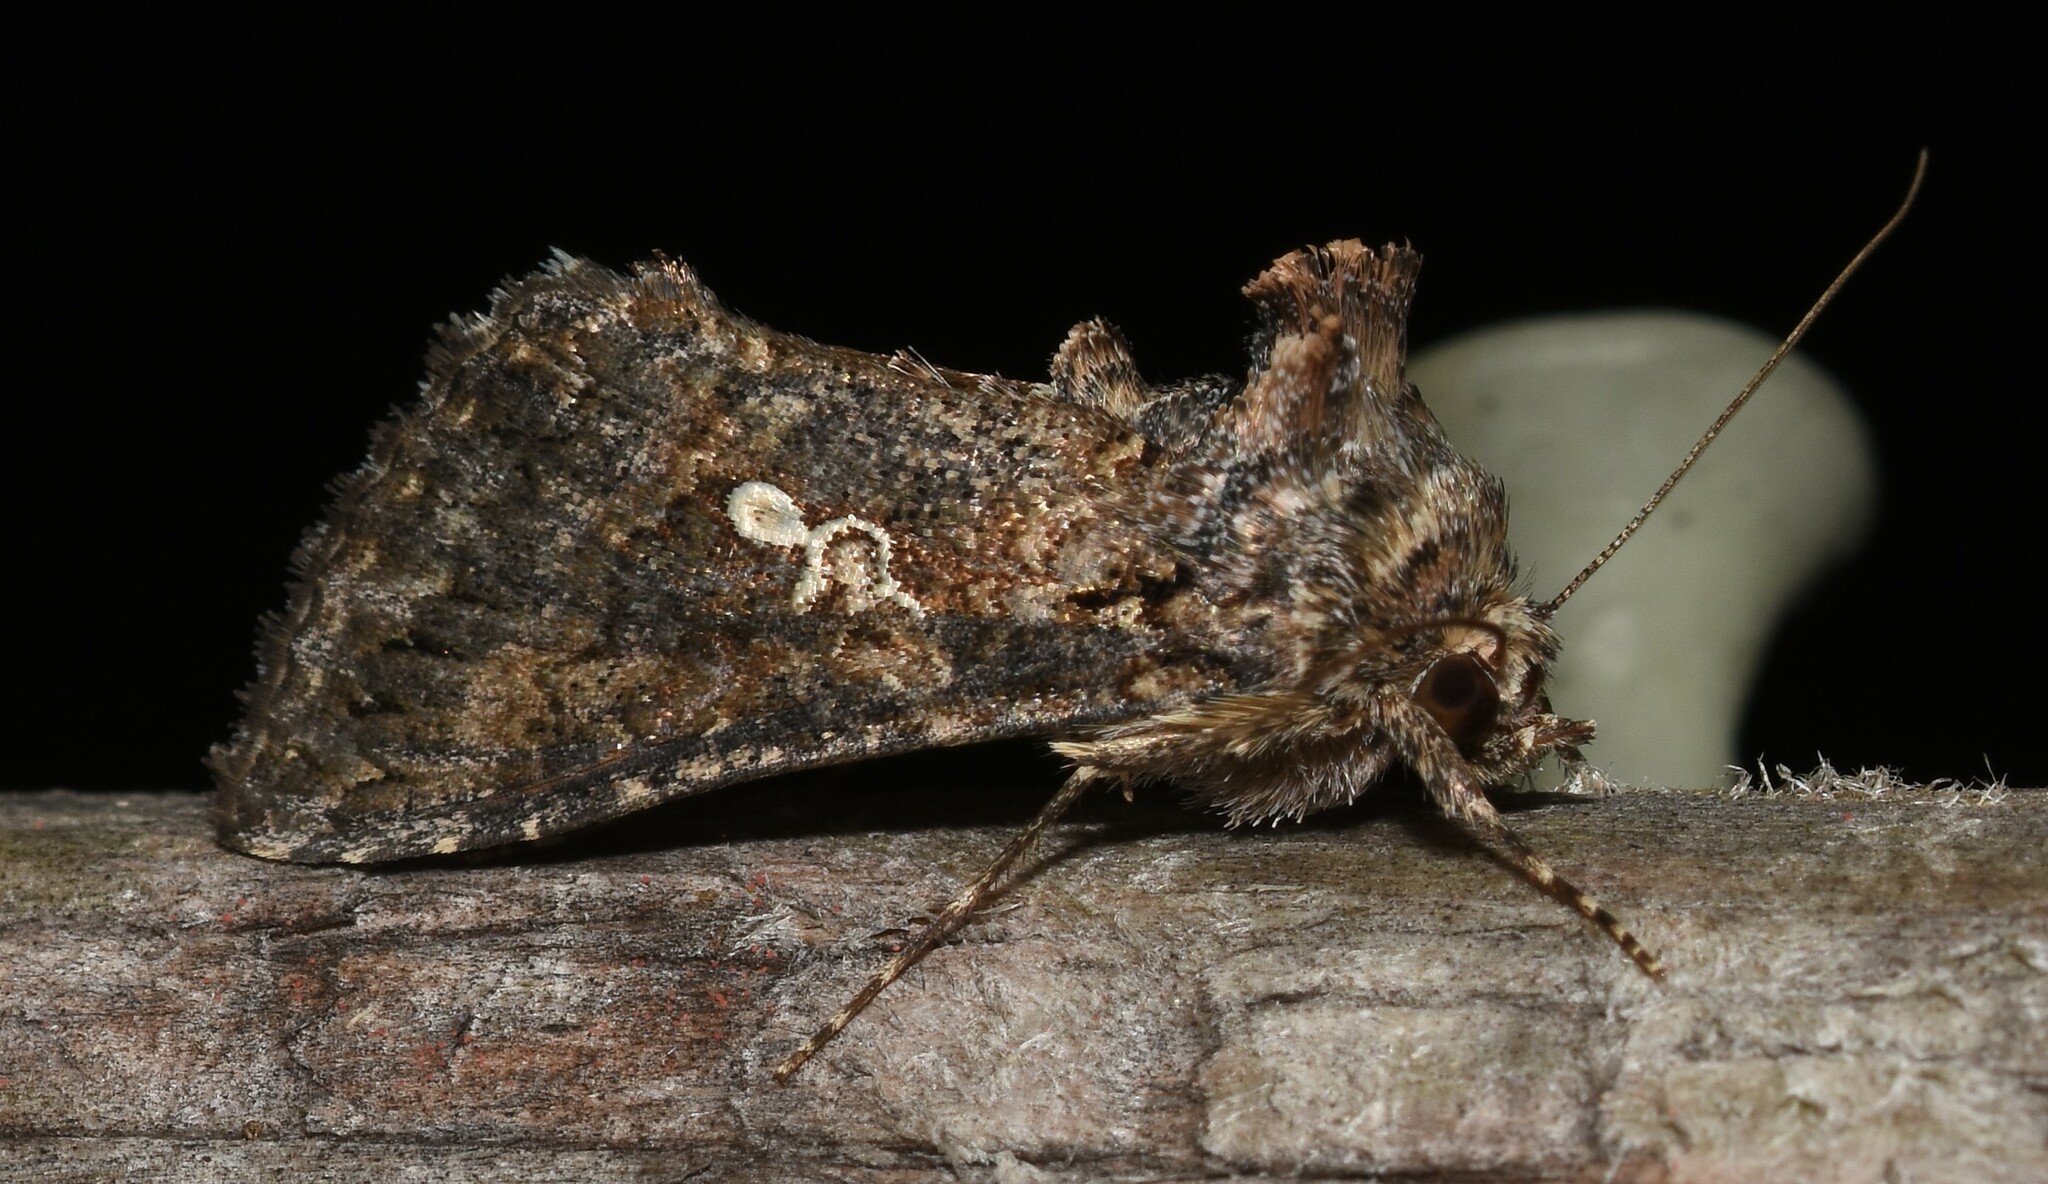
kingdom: Animalia
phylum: Arthropoda
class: Insecta
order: Lepidoptera
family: Noctuidae
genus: Trichoplusia
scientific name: Trichoplusia ni
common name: Ni moth
